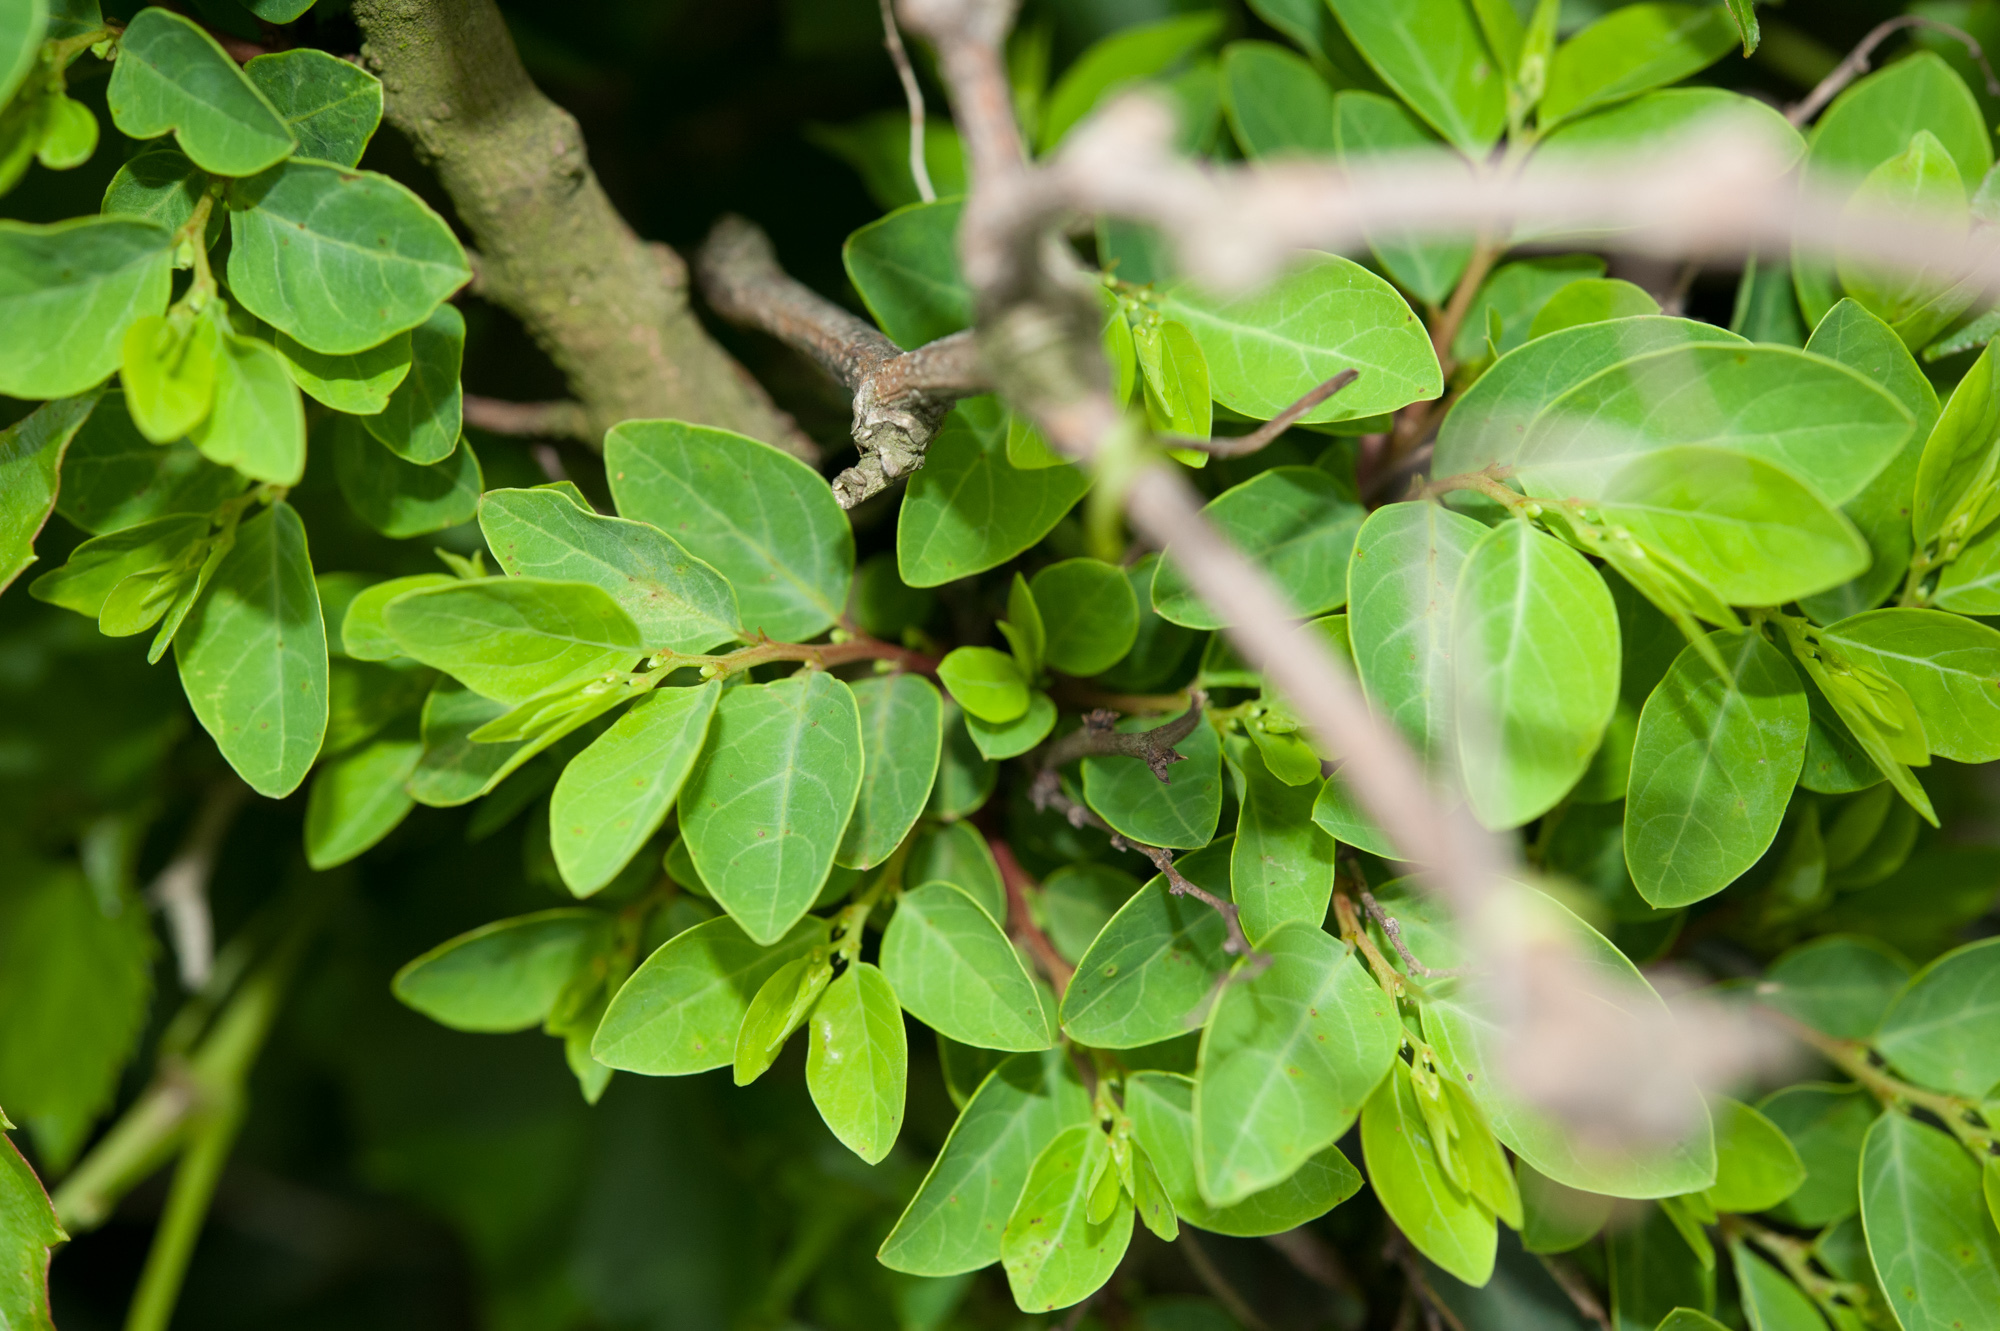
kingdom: Plantae
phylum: Tracheophyta
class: Magnoliopsida
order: Malpighiales
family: Phyllanthaceae
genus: Breynia
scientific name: Breynia vitis-idaea
